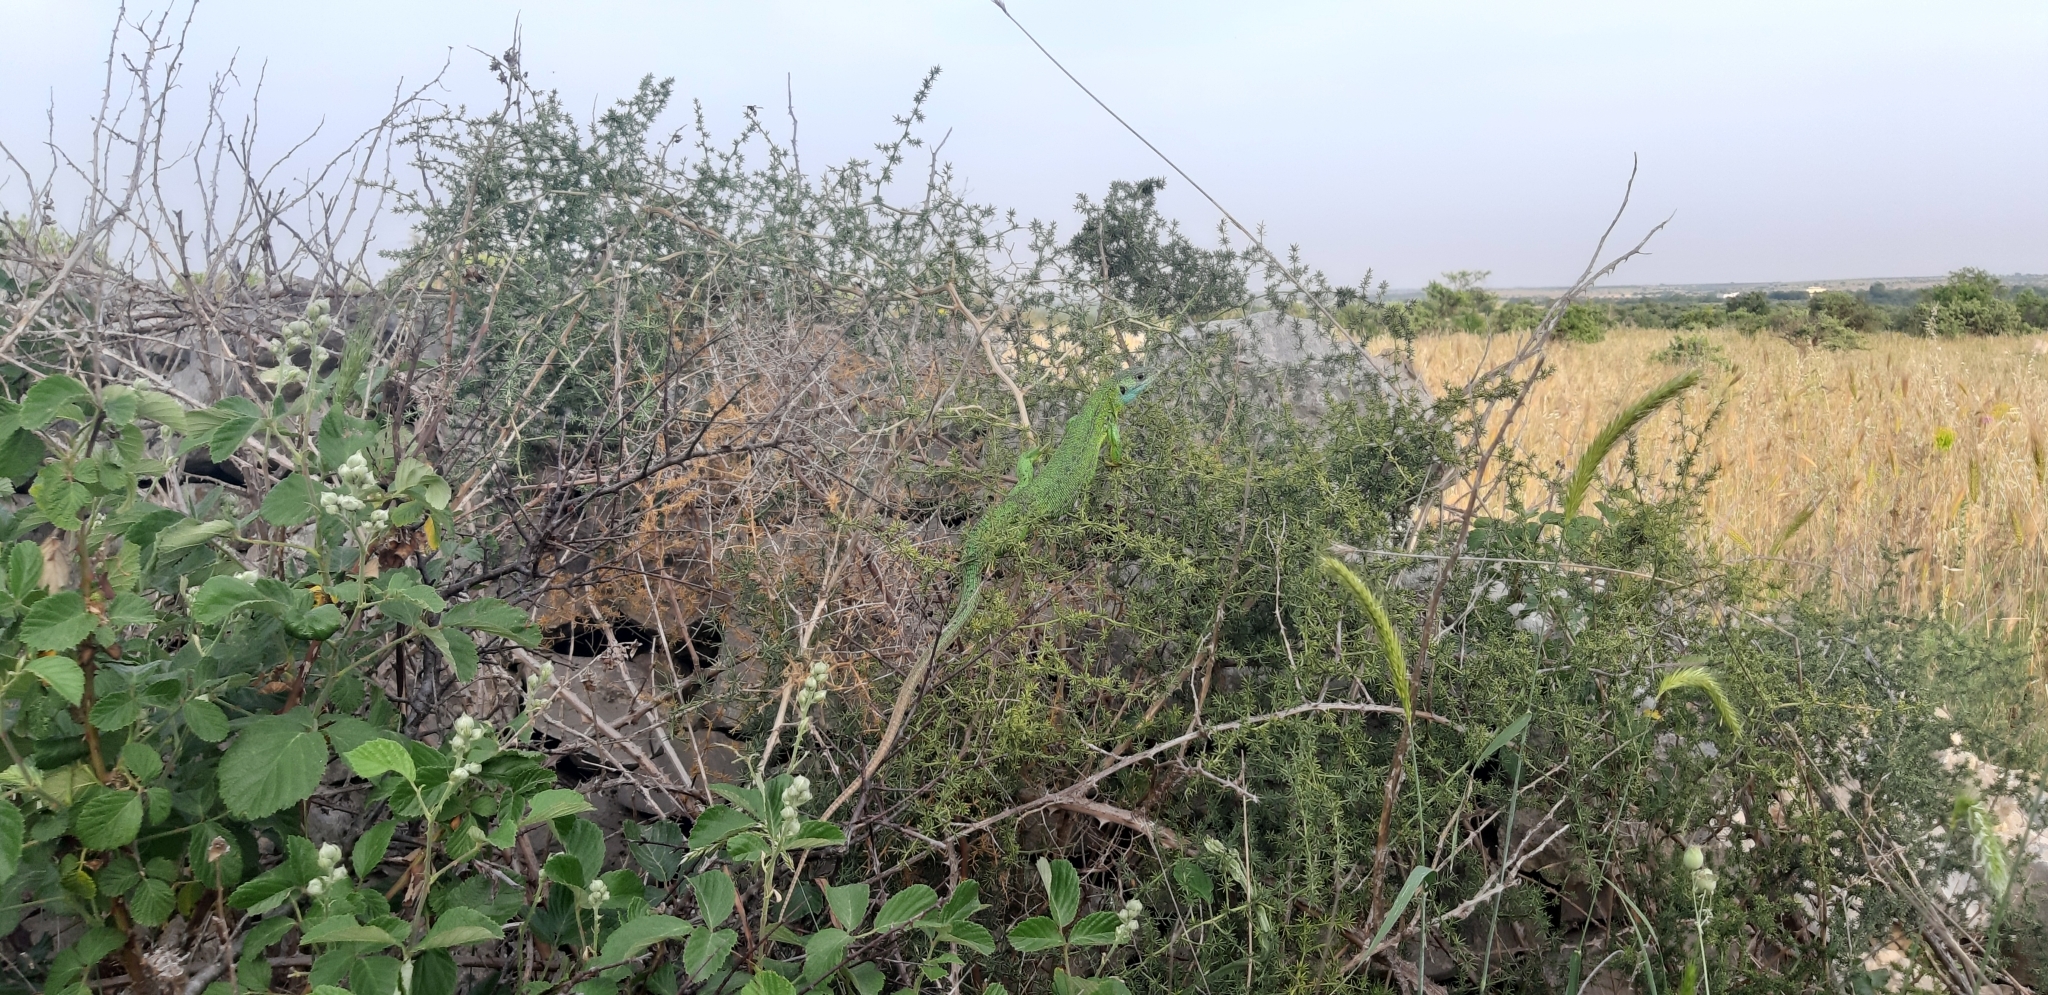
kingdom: Animalia
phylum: Chordata
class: Squamata
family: Lacertidae
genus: Lacerta
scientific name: Lacerta bilineata
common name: Western green lizard
